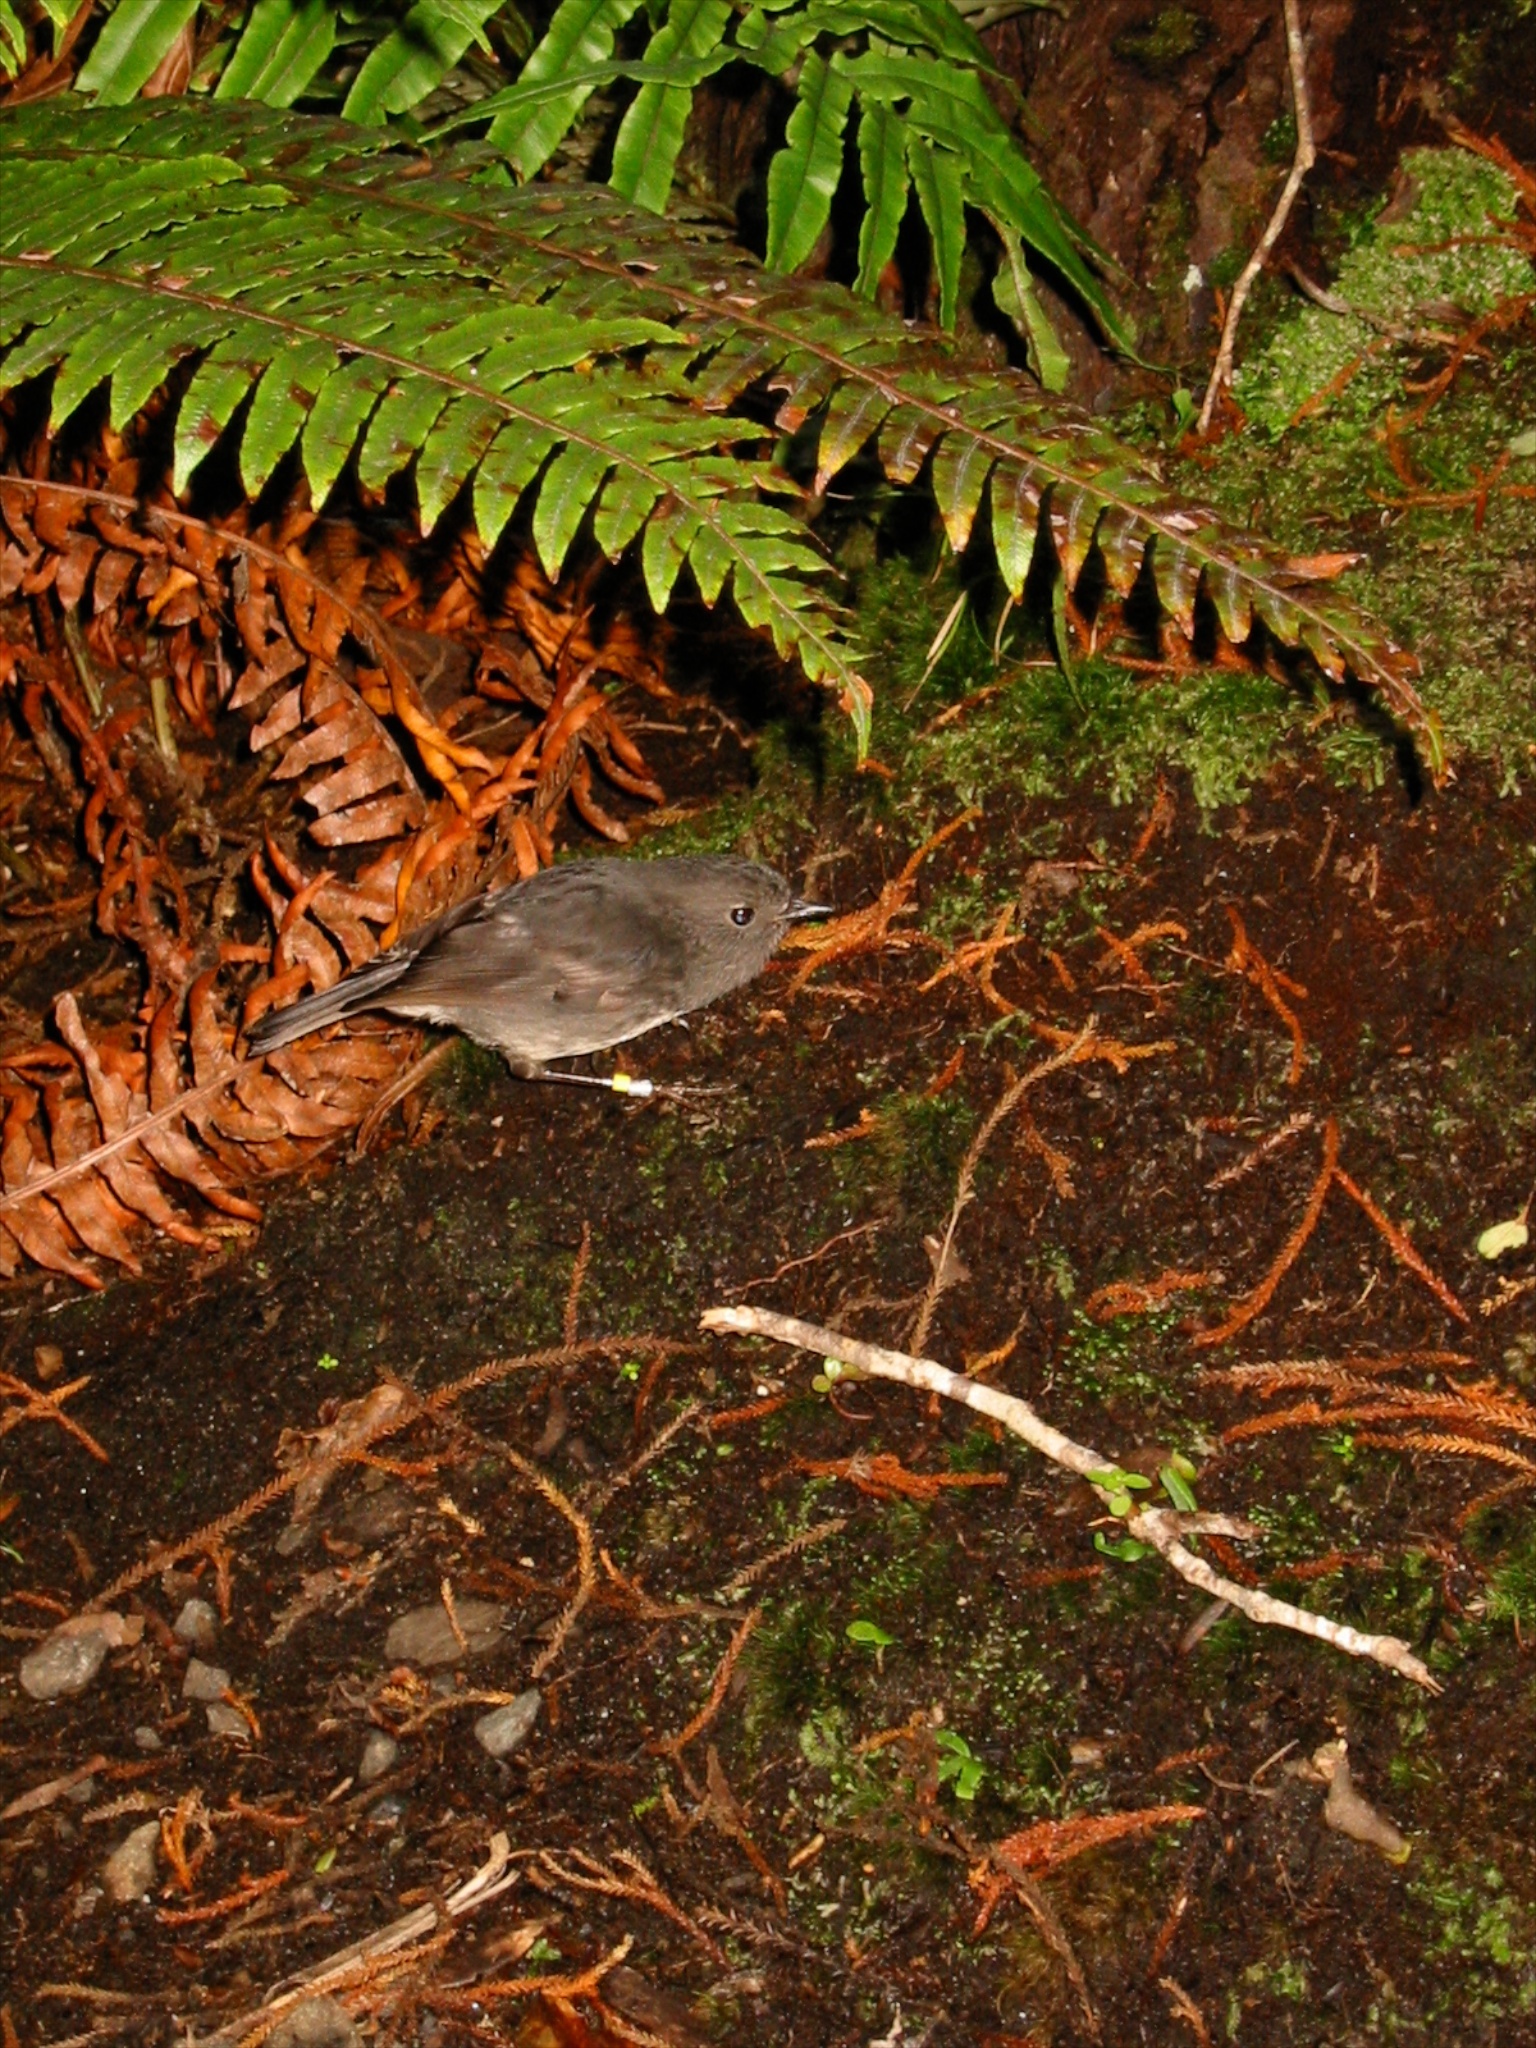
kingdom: Animalia
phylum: Chordata
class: Aves
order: Passeriformes
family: Petroicidae
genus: Petroica
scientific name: Petroica australis
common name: New zealand robin
